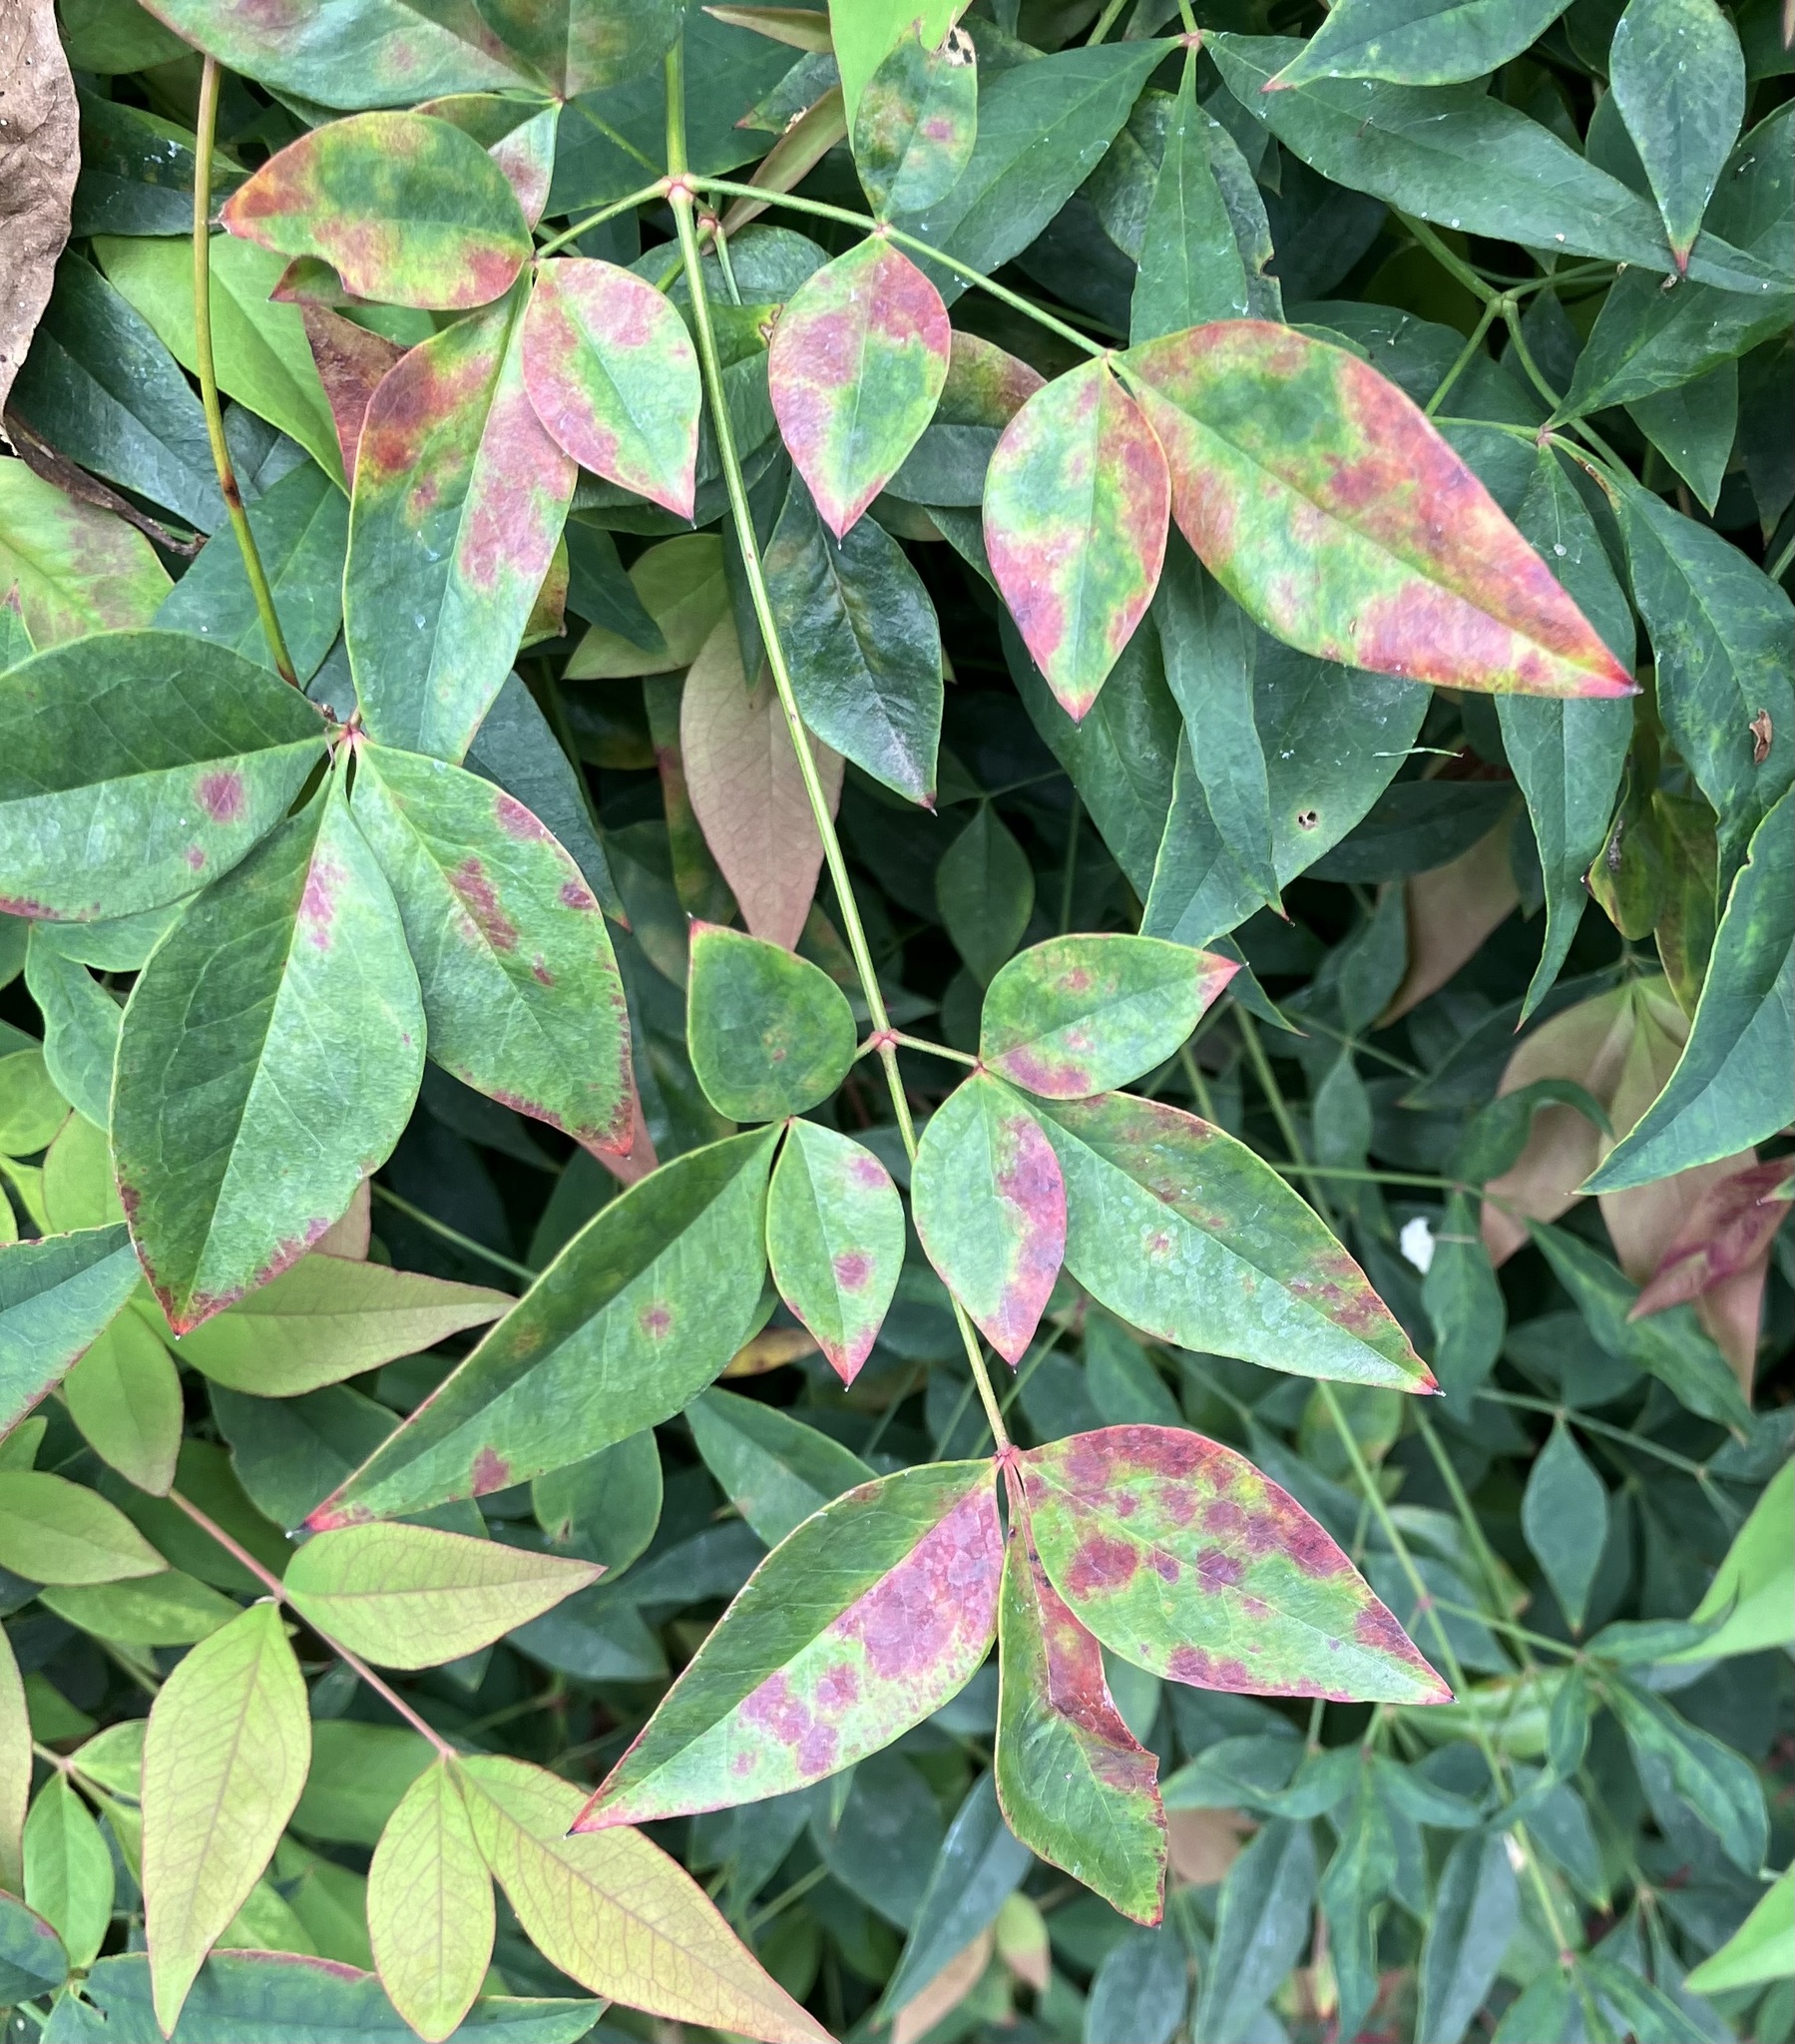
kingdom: Fungi
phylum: Ascomycota
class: Dothideomycetes
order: Mycosphaerellales
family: Mycosphaerellaceae
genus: Pseudocercospora
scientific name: Pseudocercospora nandinae
